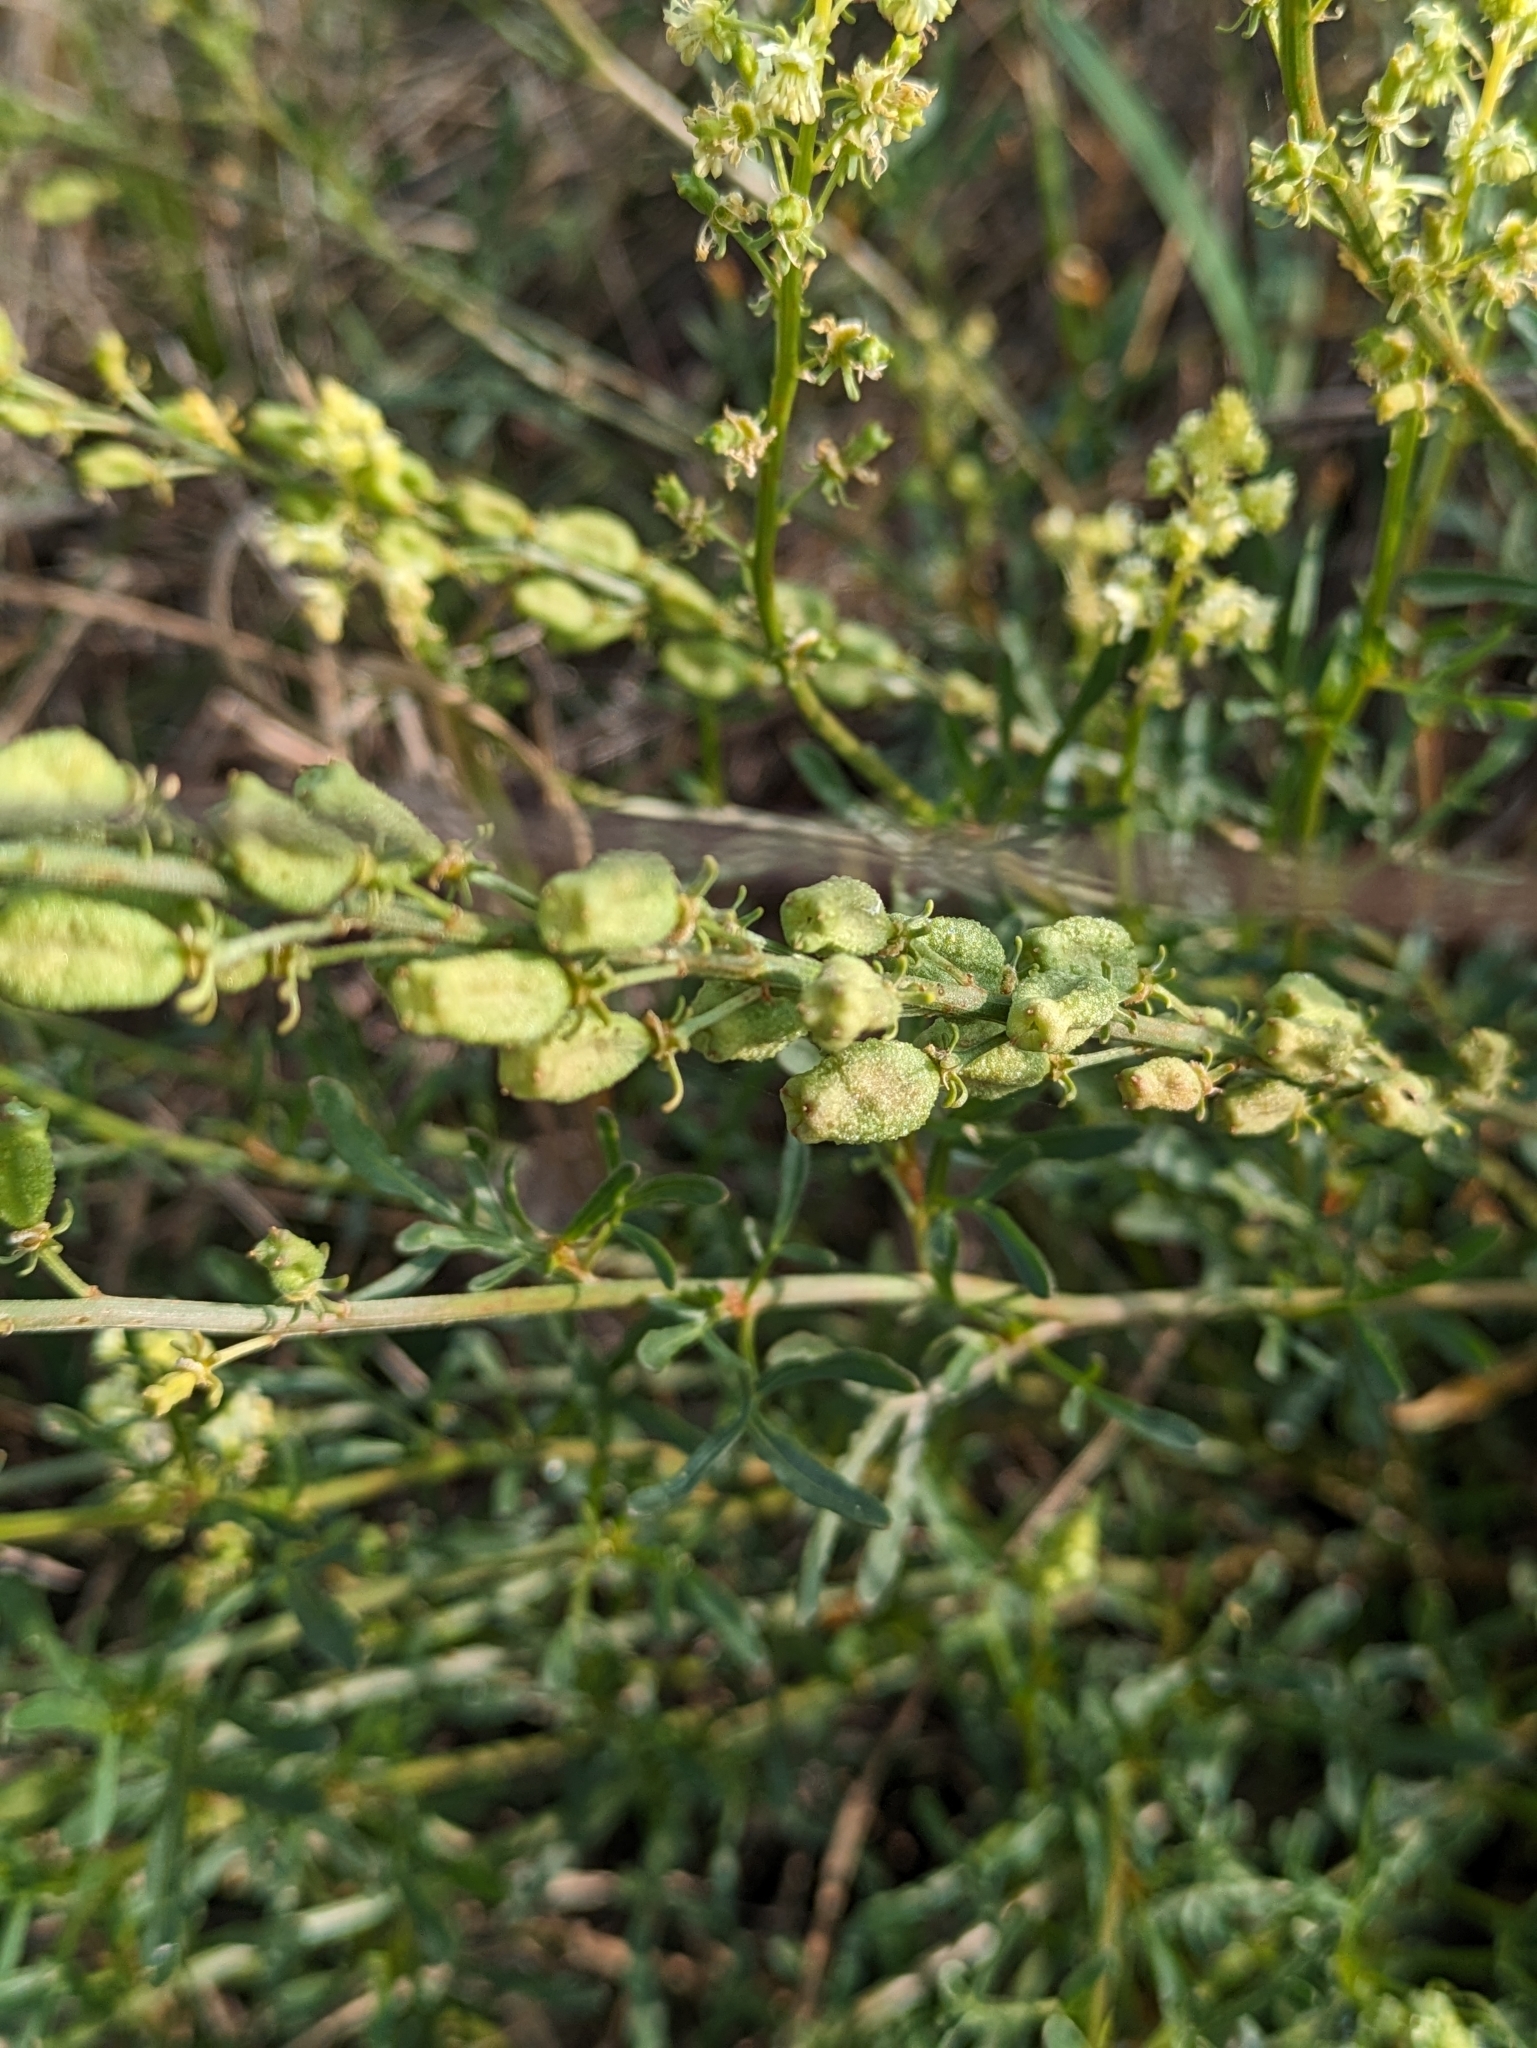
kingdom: Plantae
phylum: Tracheophyta
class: Magnoliopsida
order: Brassicales
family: Resedaceae
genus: Reseda
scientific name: Reseda lutea
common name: Wild mignonette
